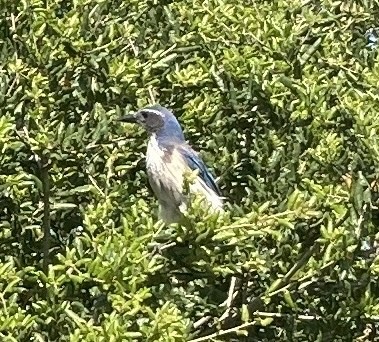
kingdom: Animalia
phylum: Chordata
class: Aves
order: Passeriformes
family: Corvidae
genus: Aphelocoma
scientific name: Aphelocoma californica
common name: California scrub-jay
